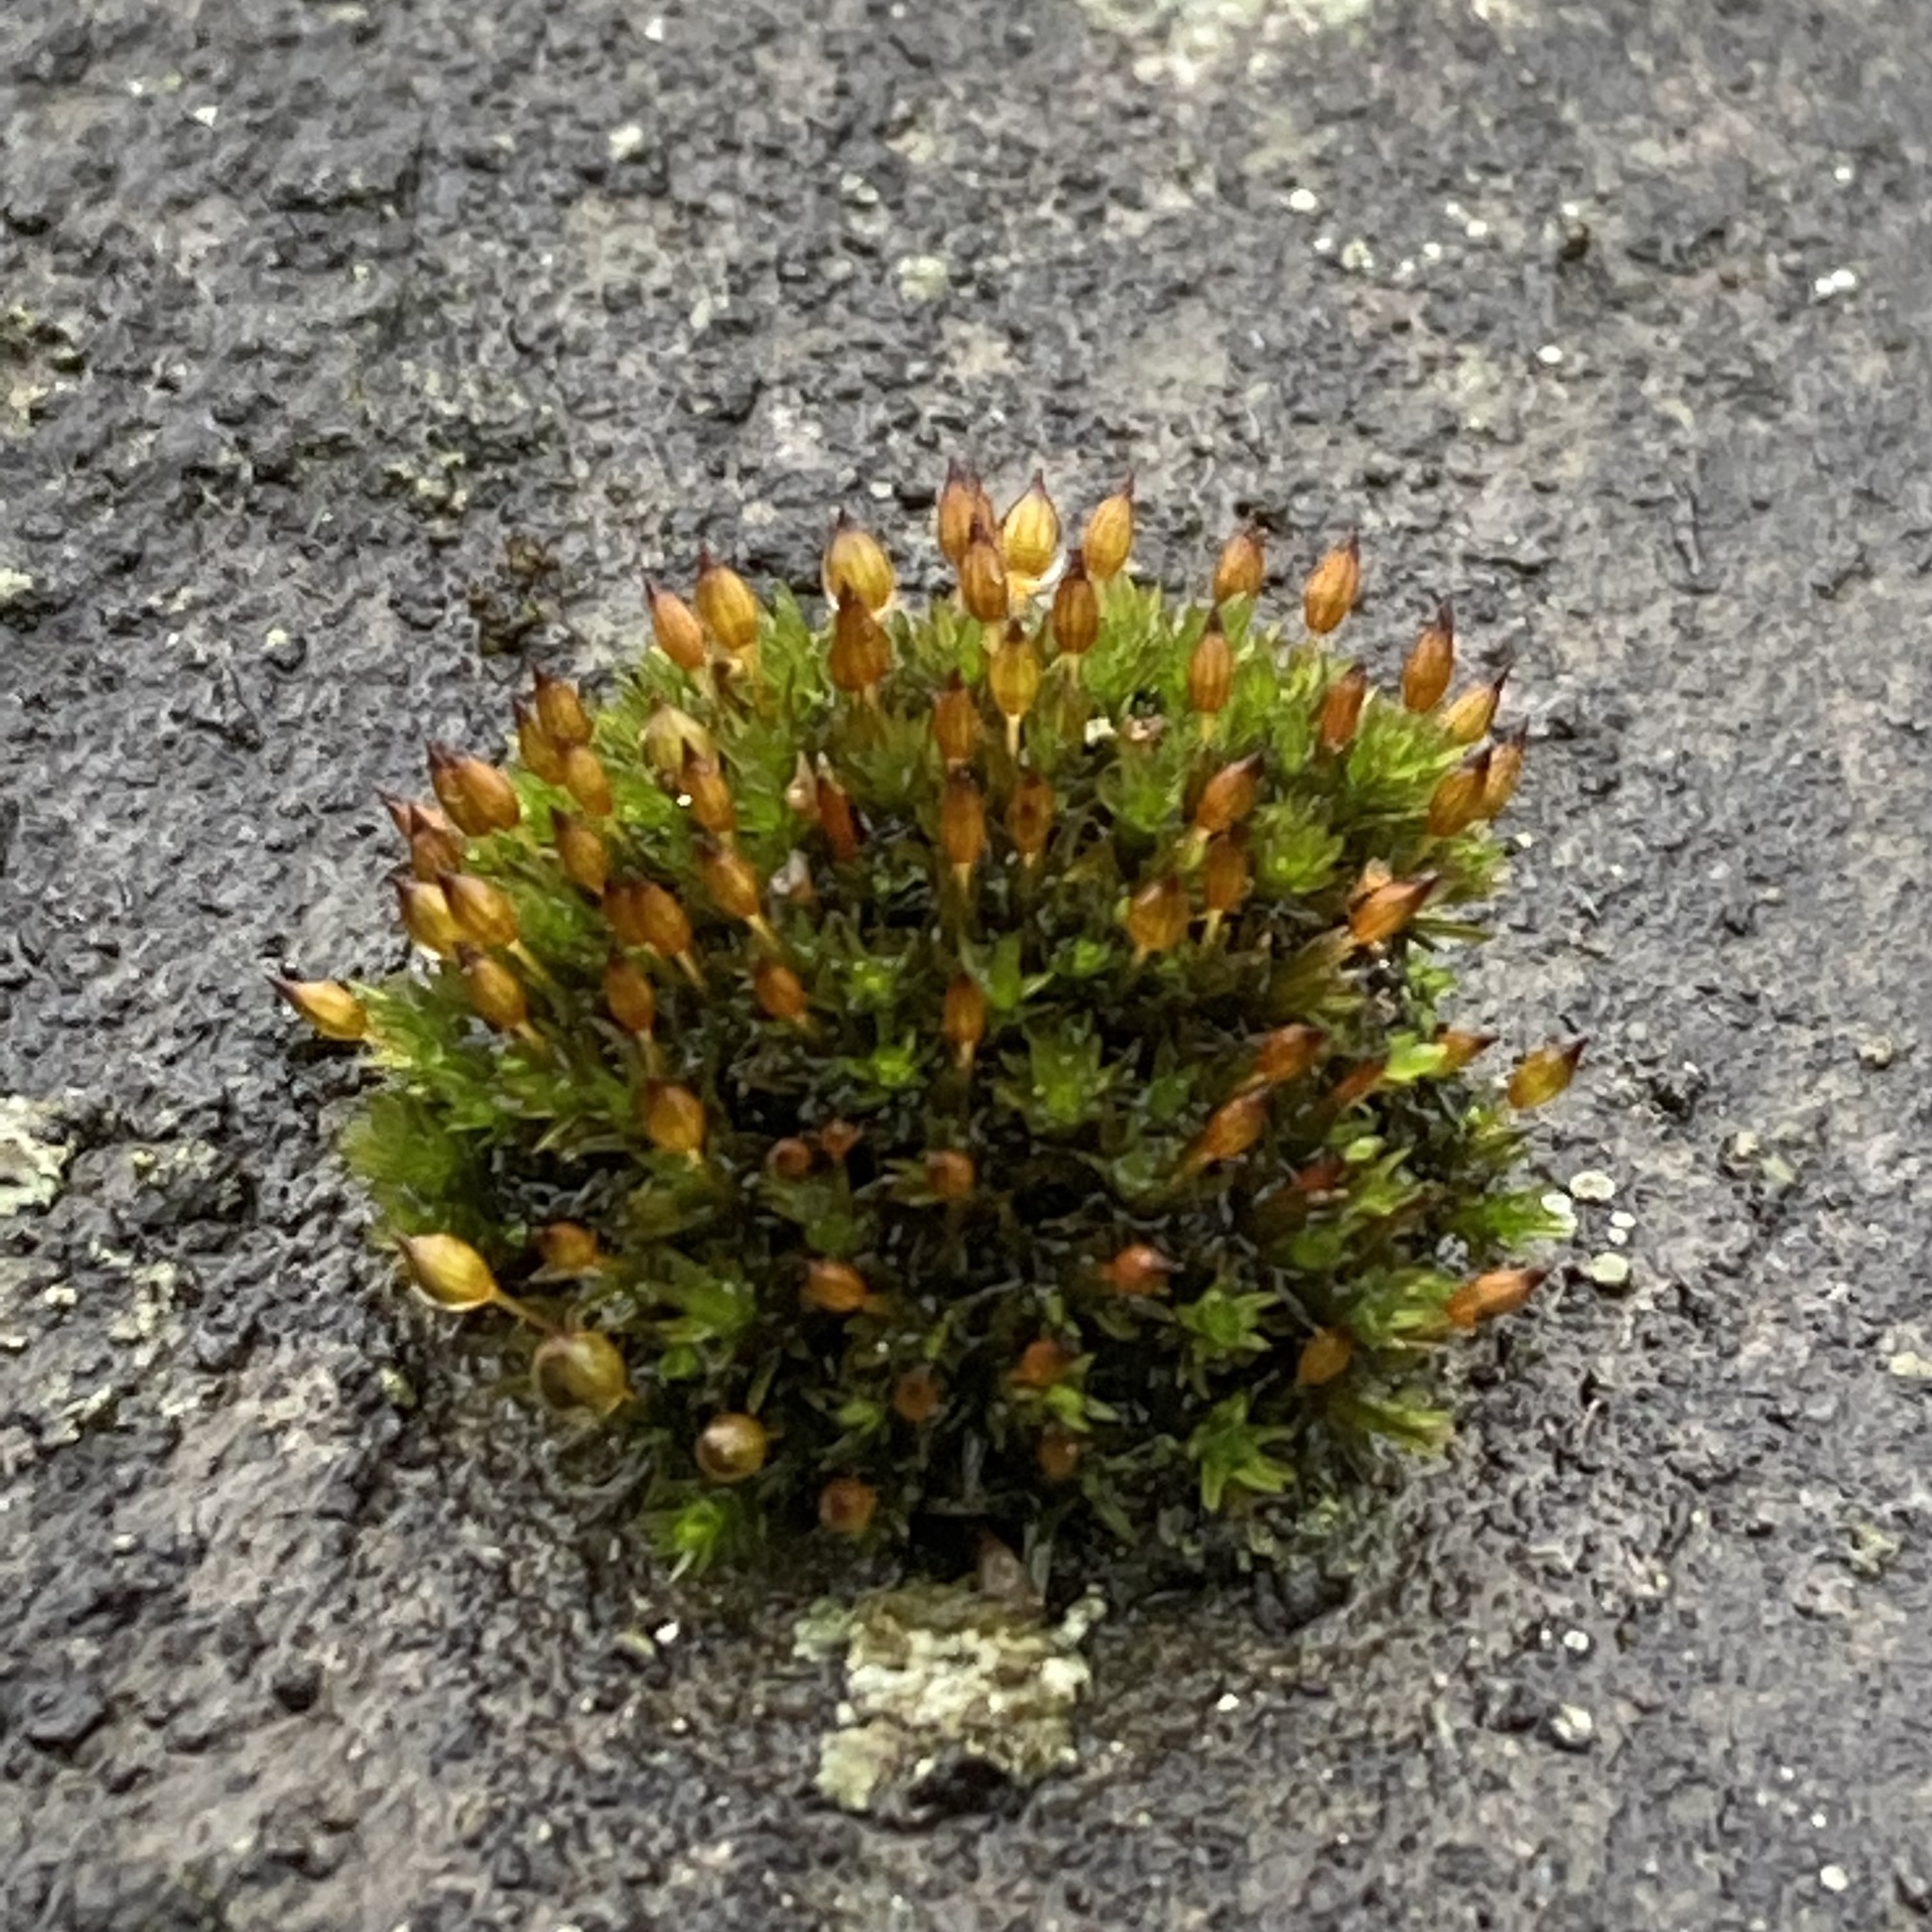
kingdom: Plantae
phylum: Bryophyta
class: Bryopsida
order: Orthotrichales
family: Orthotrichaceae
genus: Orthotrichum
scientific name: Orthotrichum anomalum
